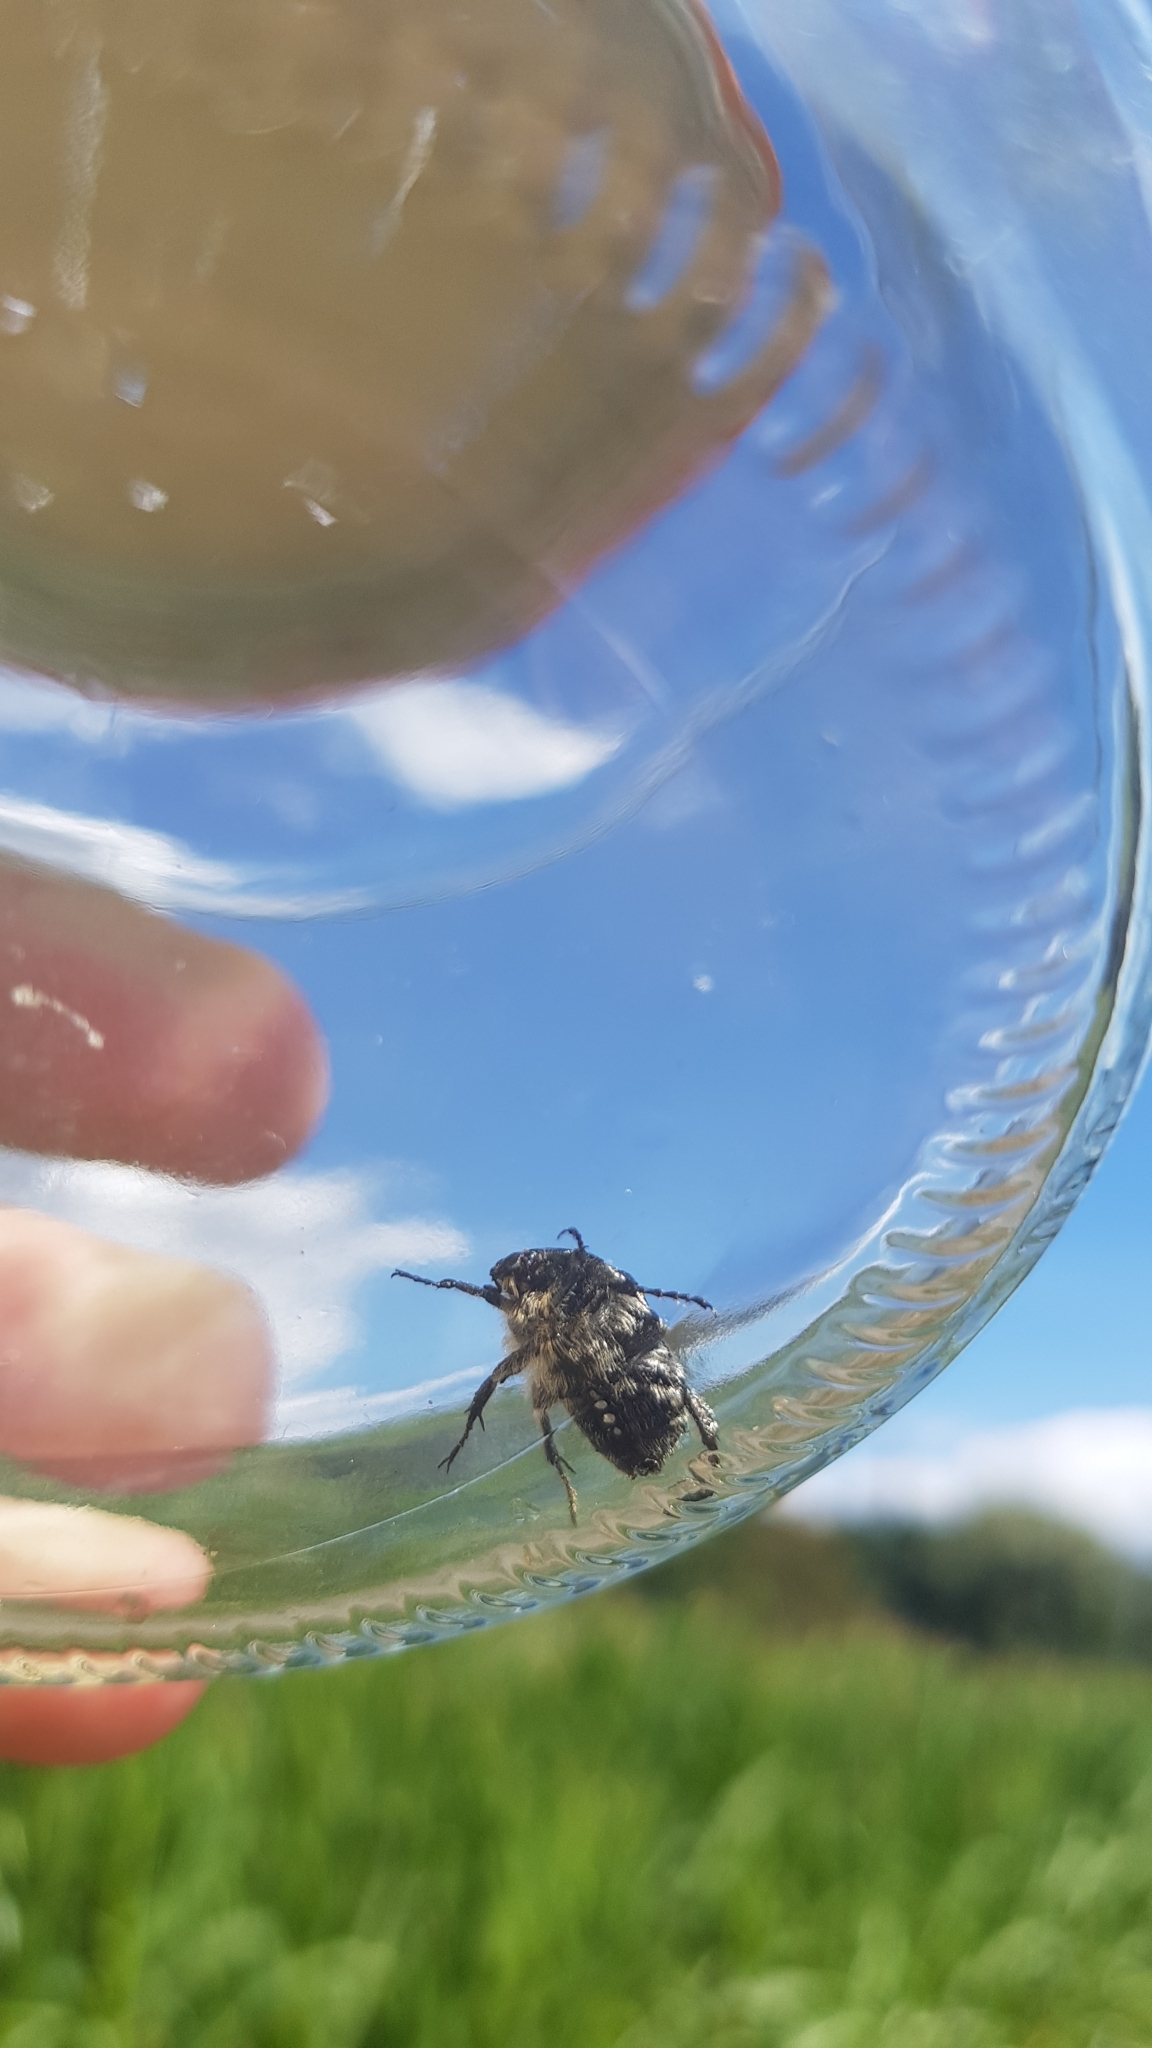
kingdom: Animalia
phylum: Arthropoda
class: Insecta
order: Coleoptera
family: Scarabaeidae
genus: Oxythyrea
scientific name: Oxythyrea funesta
